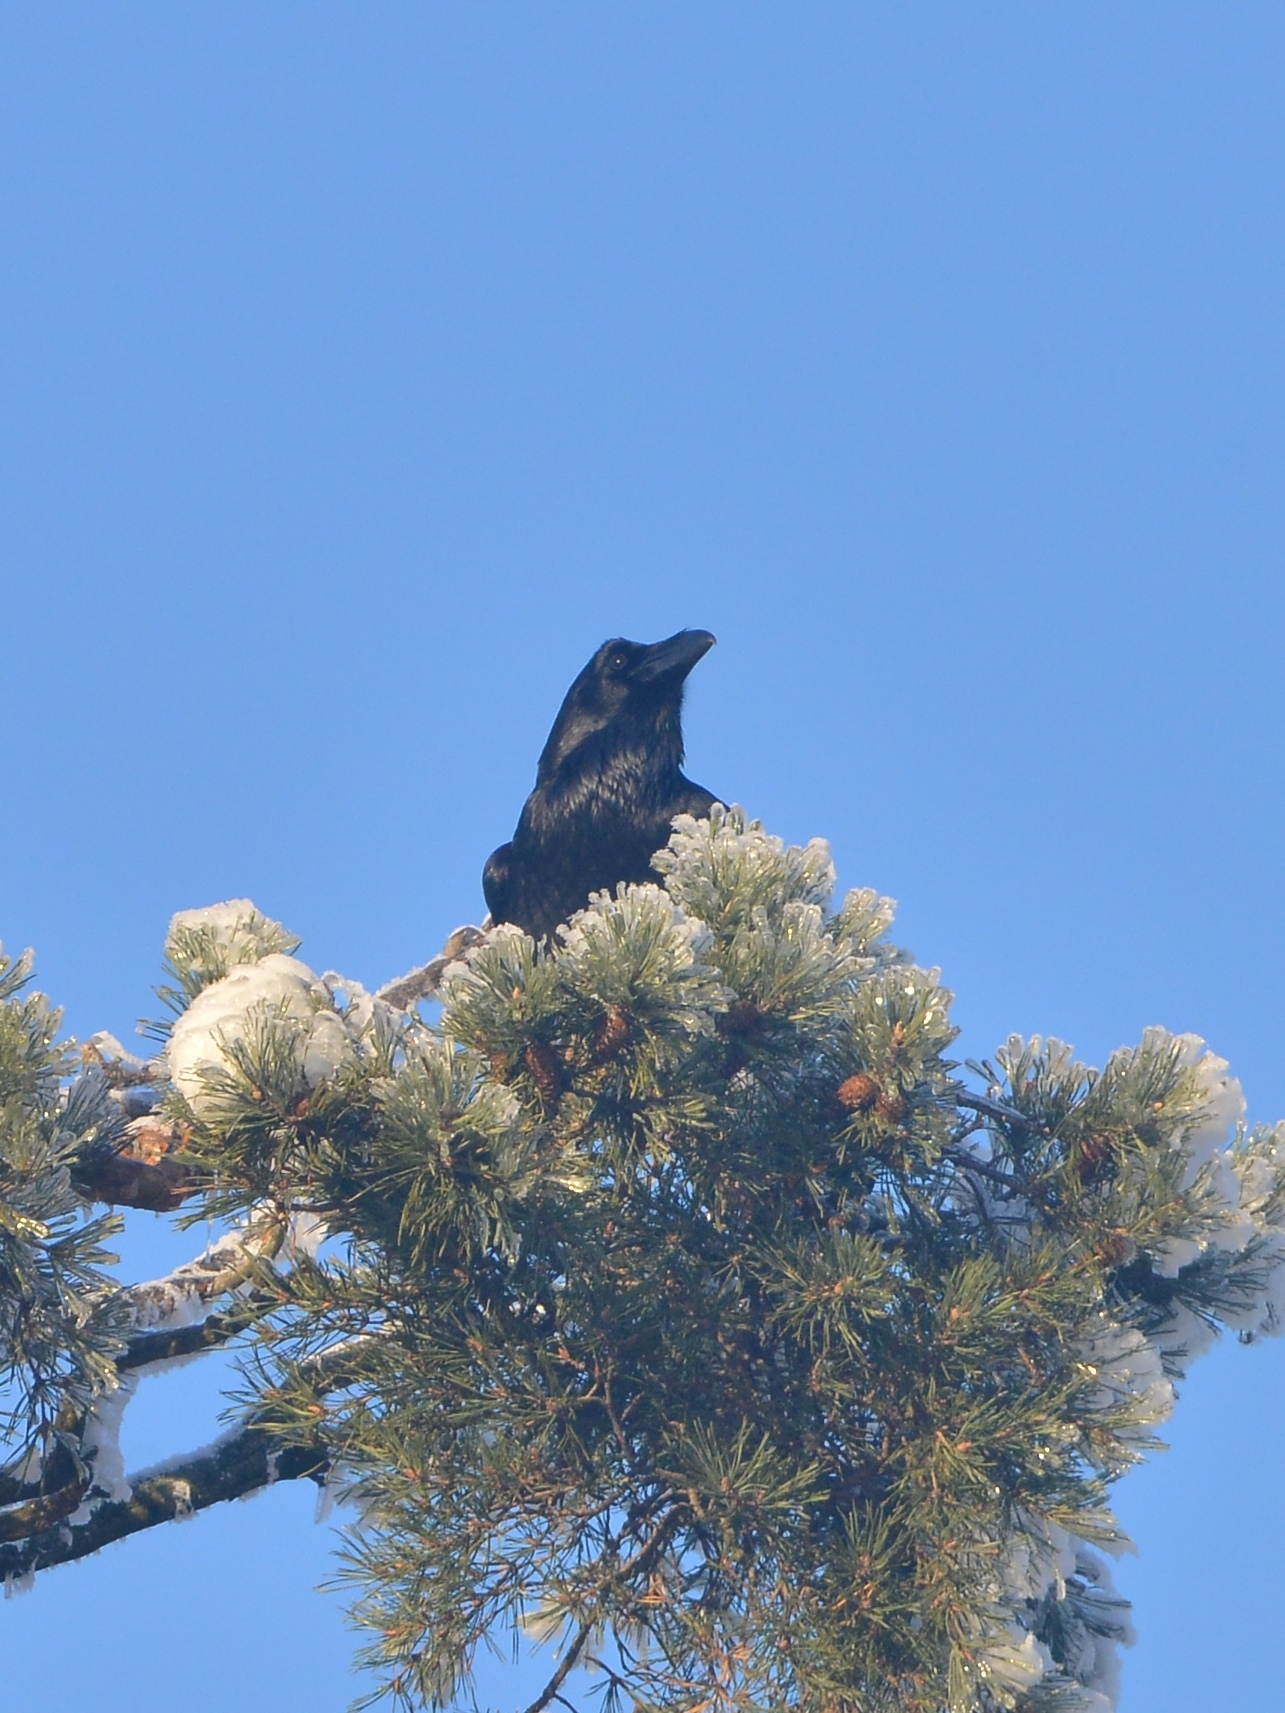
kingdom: Animalia
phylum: Chordata
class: Aves
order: Passeriformes
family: Corvidae
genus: Corvus
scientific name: Corvus corax
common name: Common raven
